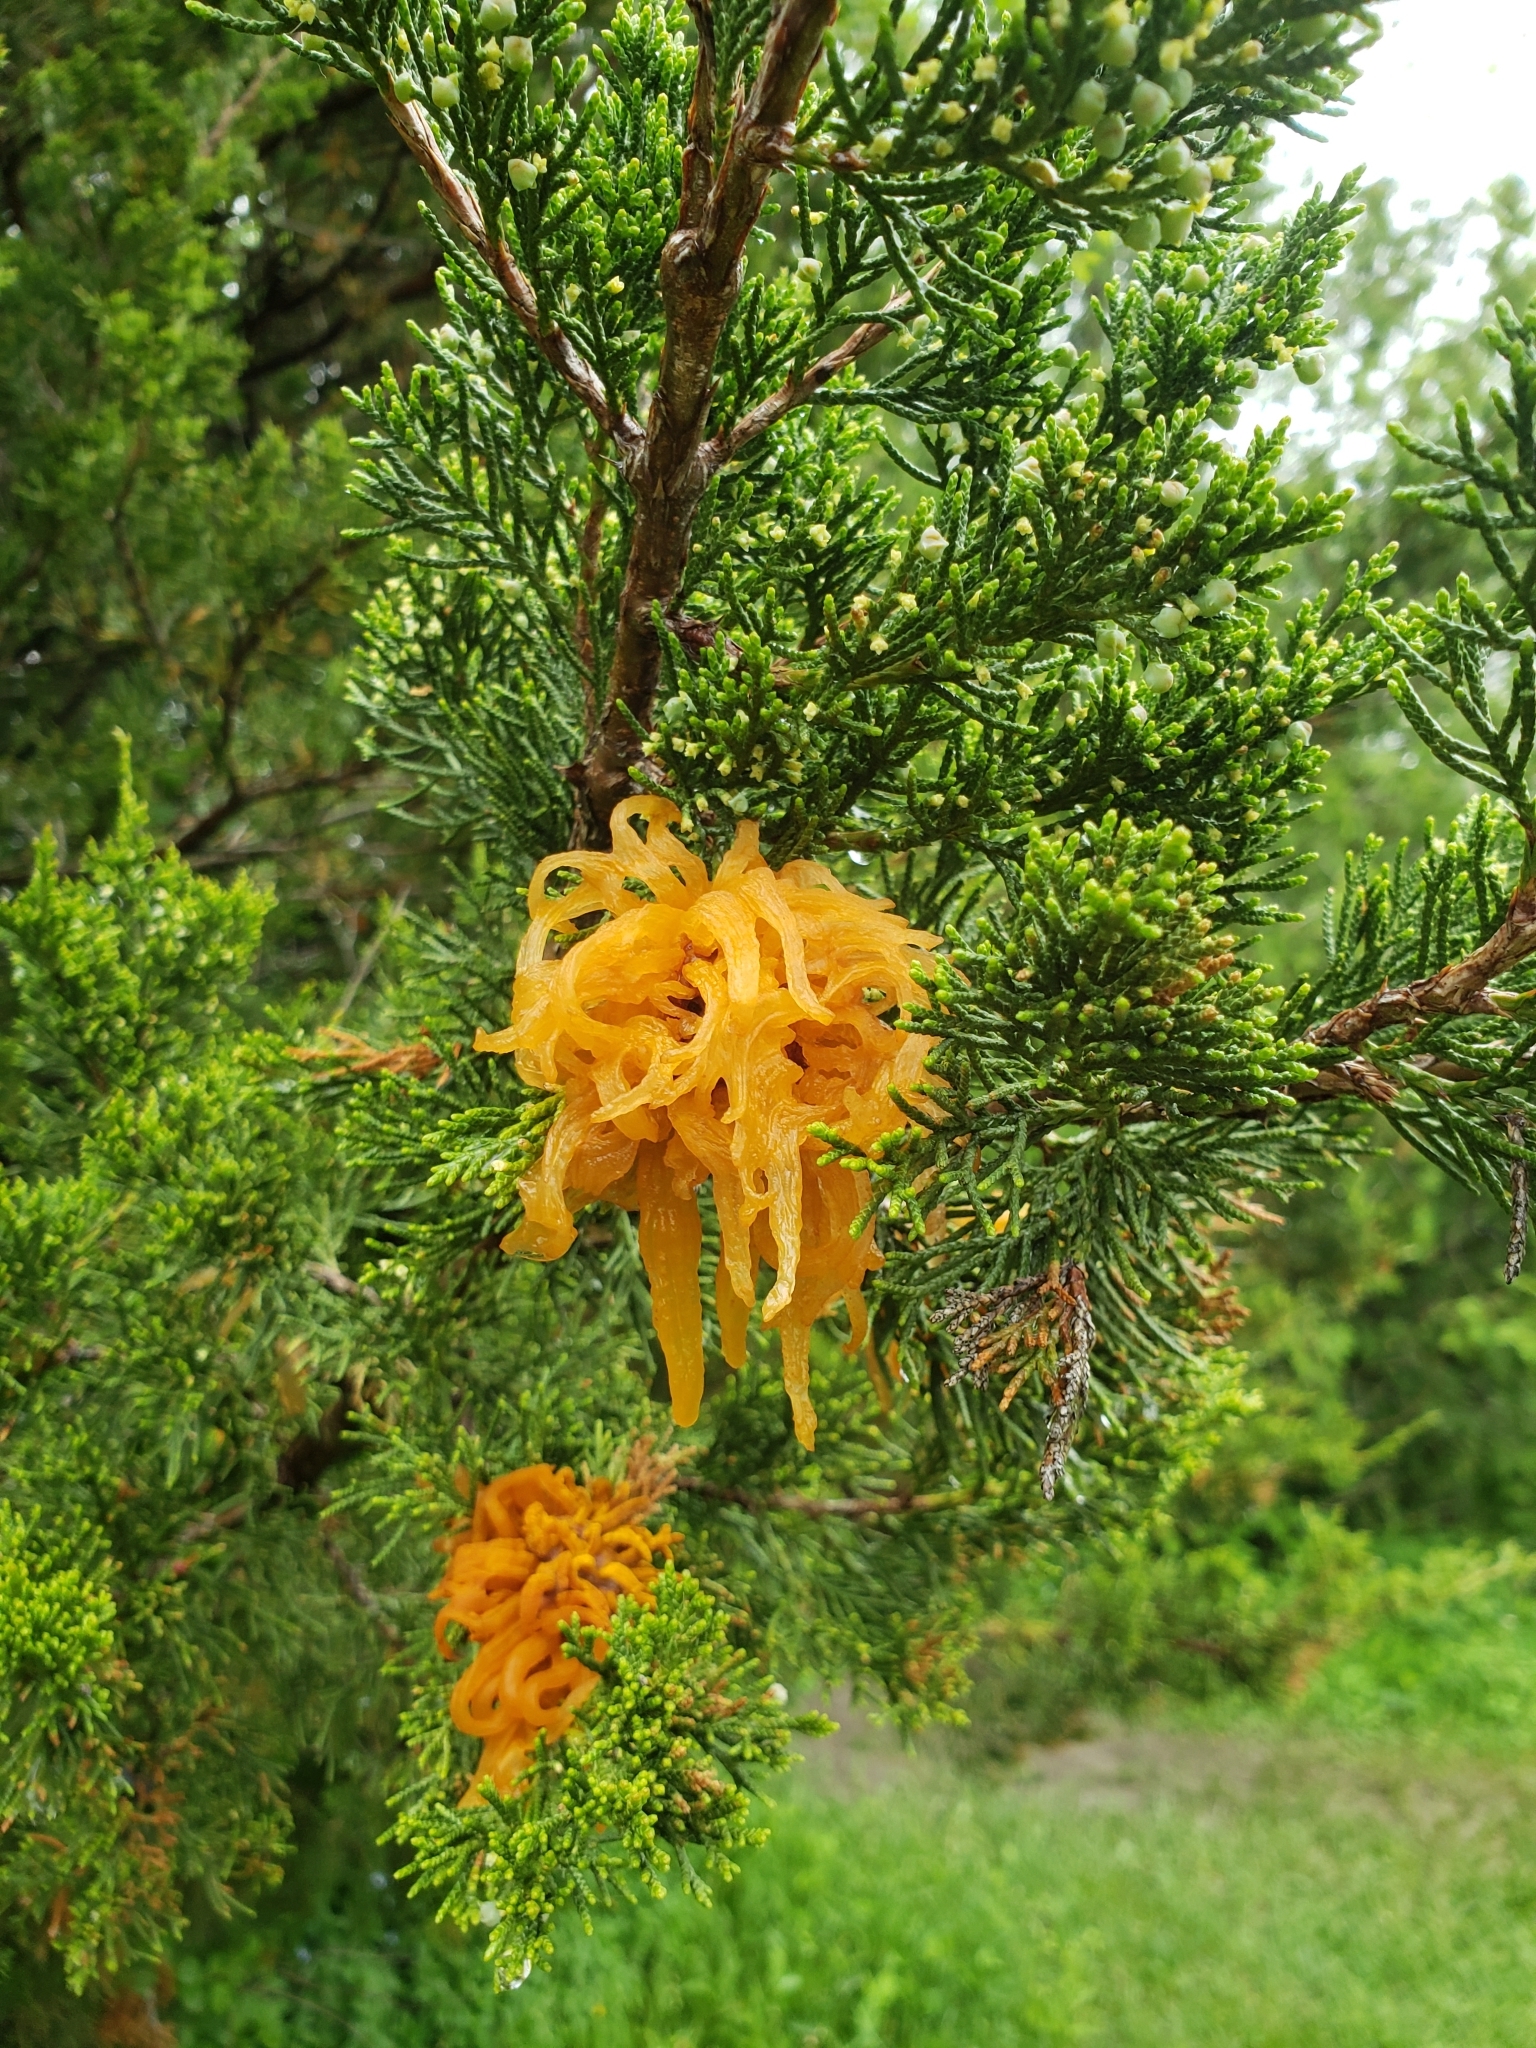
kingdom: Fungi
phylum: Basidiomycota
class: Pucciniomycetes
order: Pucciniales
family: Gymnosporangiaceae
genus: Gymnosporangium
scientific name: Gymnosporangium juniperi-virginianae
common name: Juniper-apple rust
